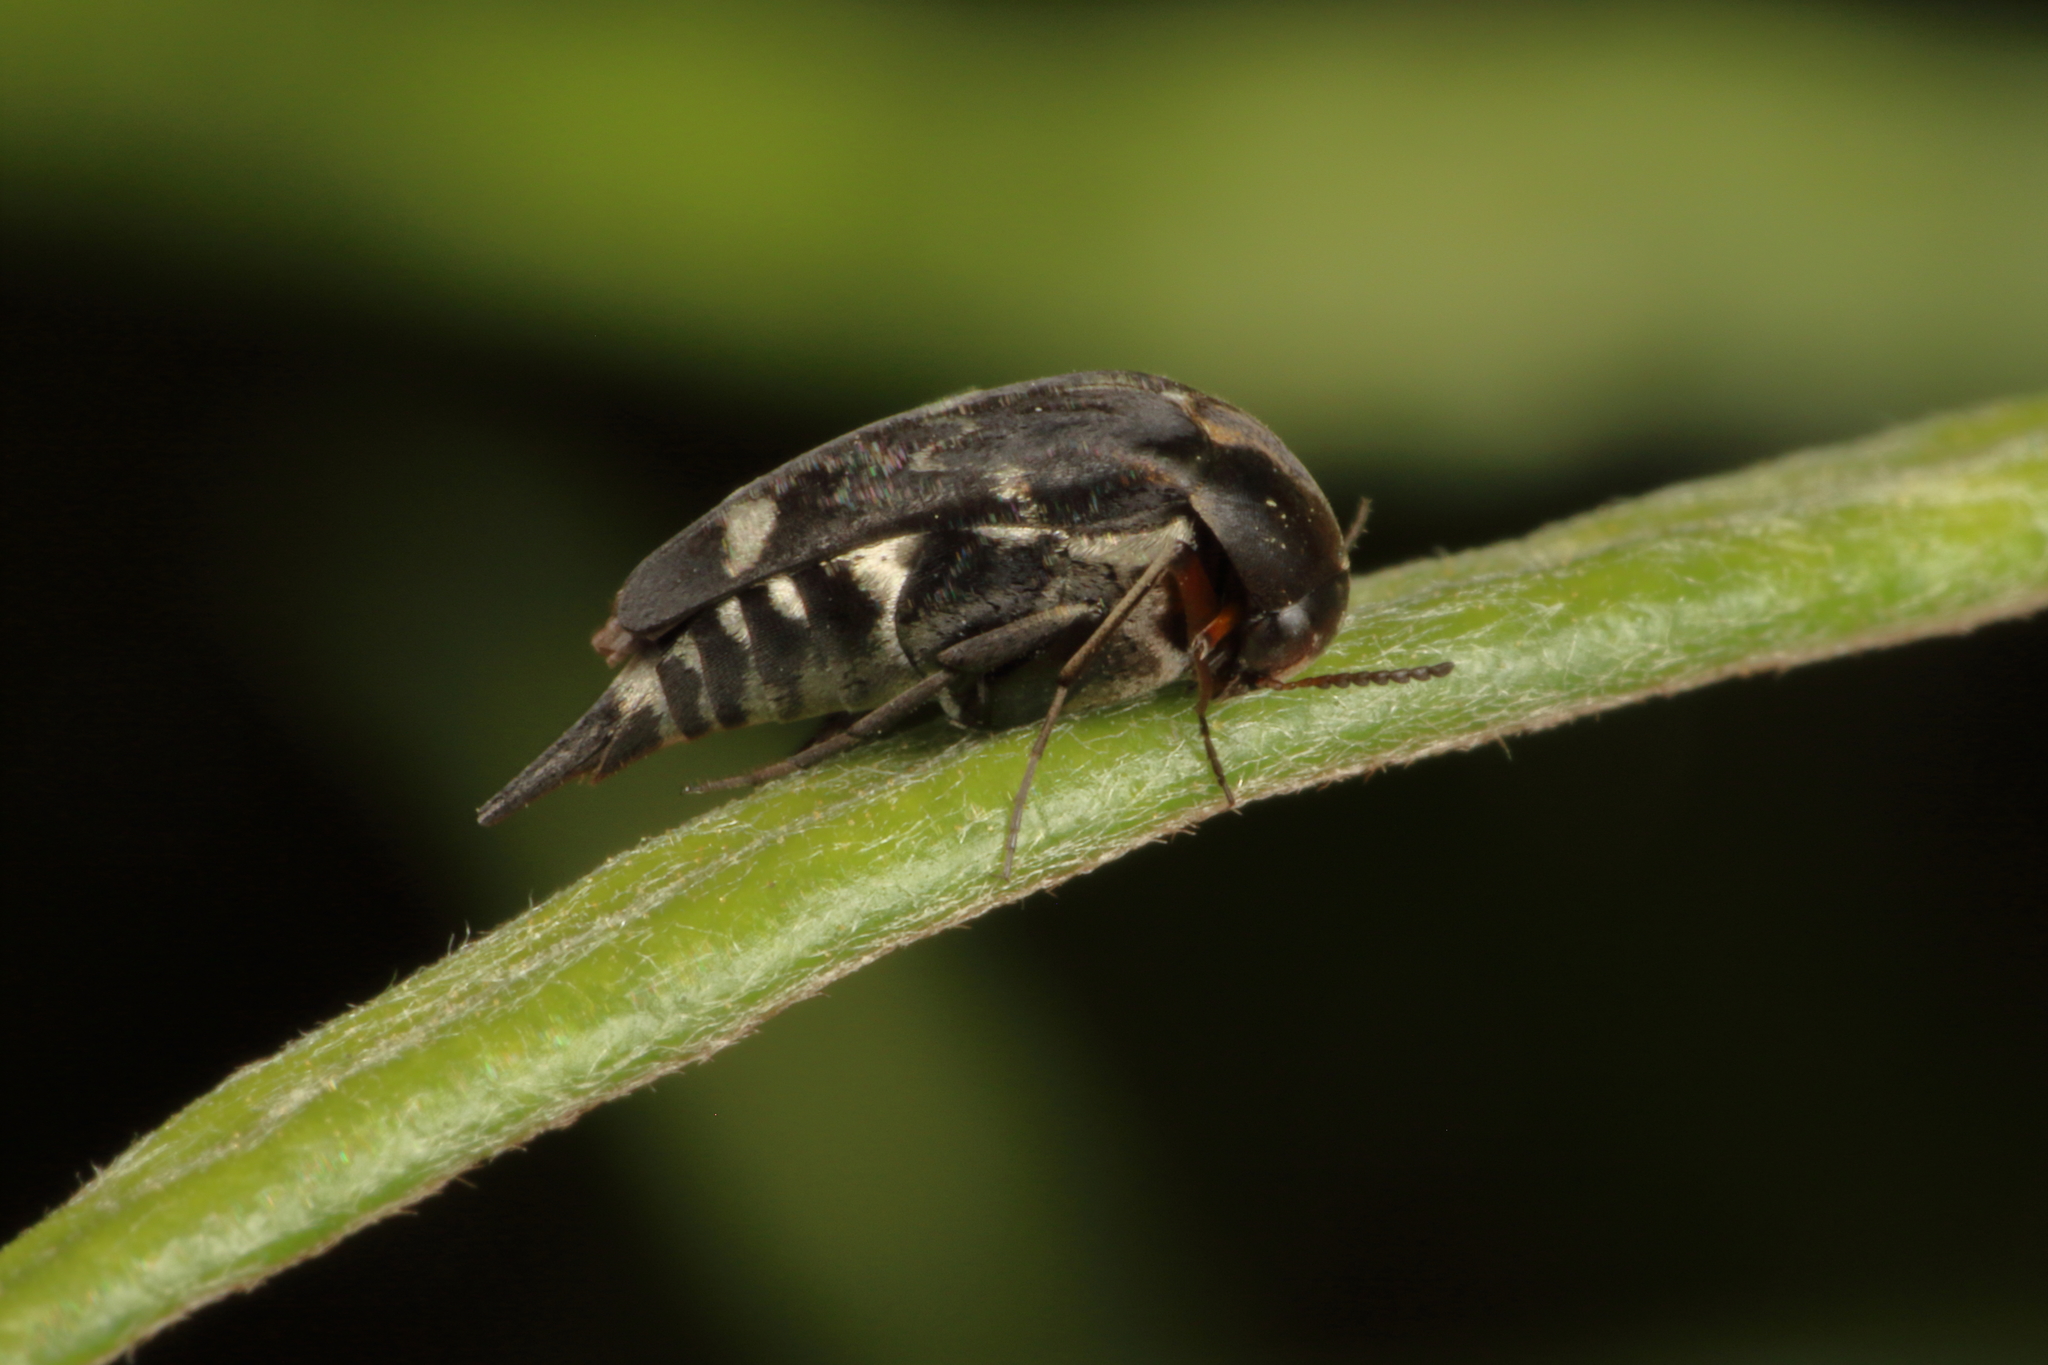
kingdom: Animalia
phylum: Arthropoda
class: Insecta
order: Coleoptera
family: Mordellidae
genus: Mordella
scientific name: Mordella
